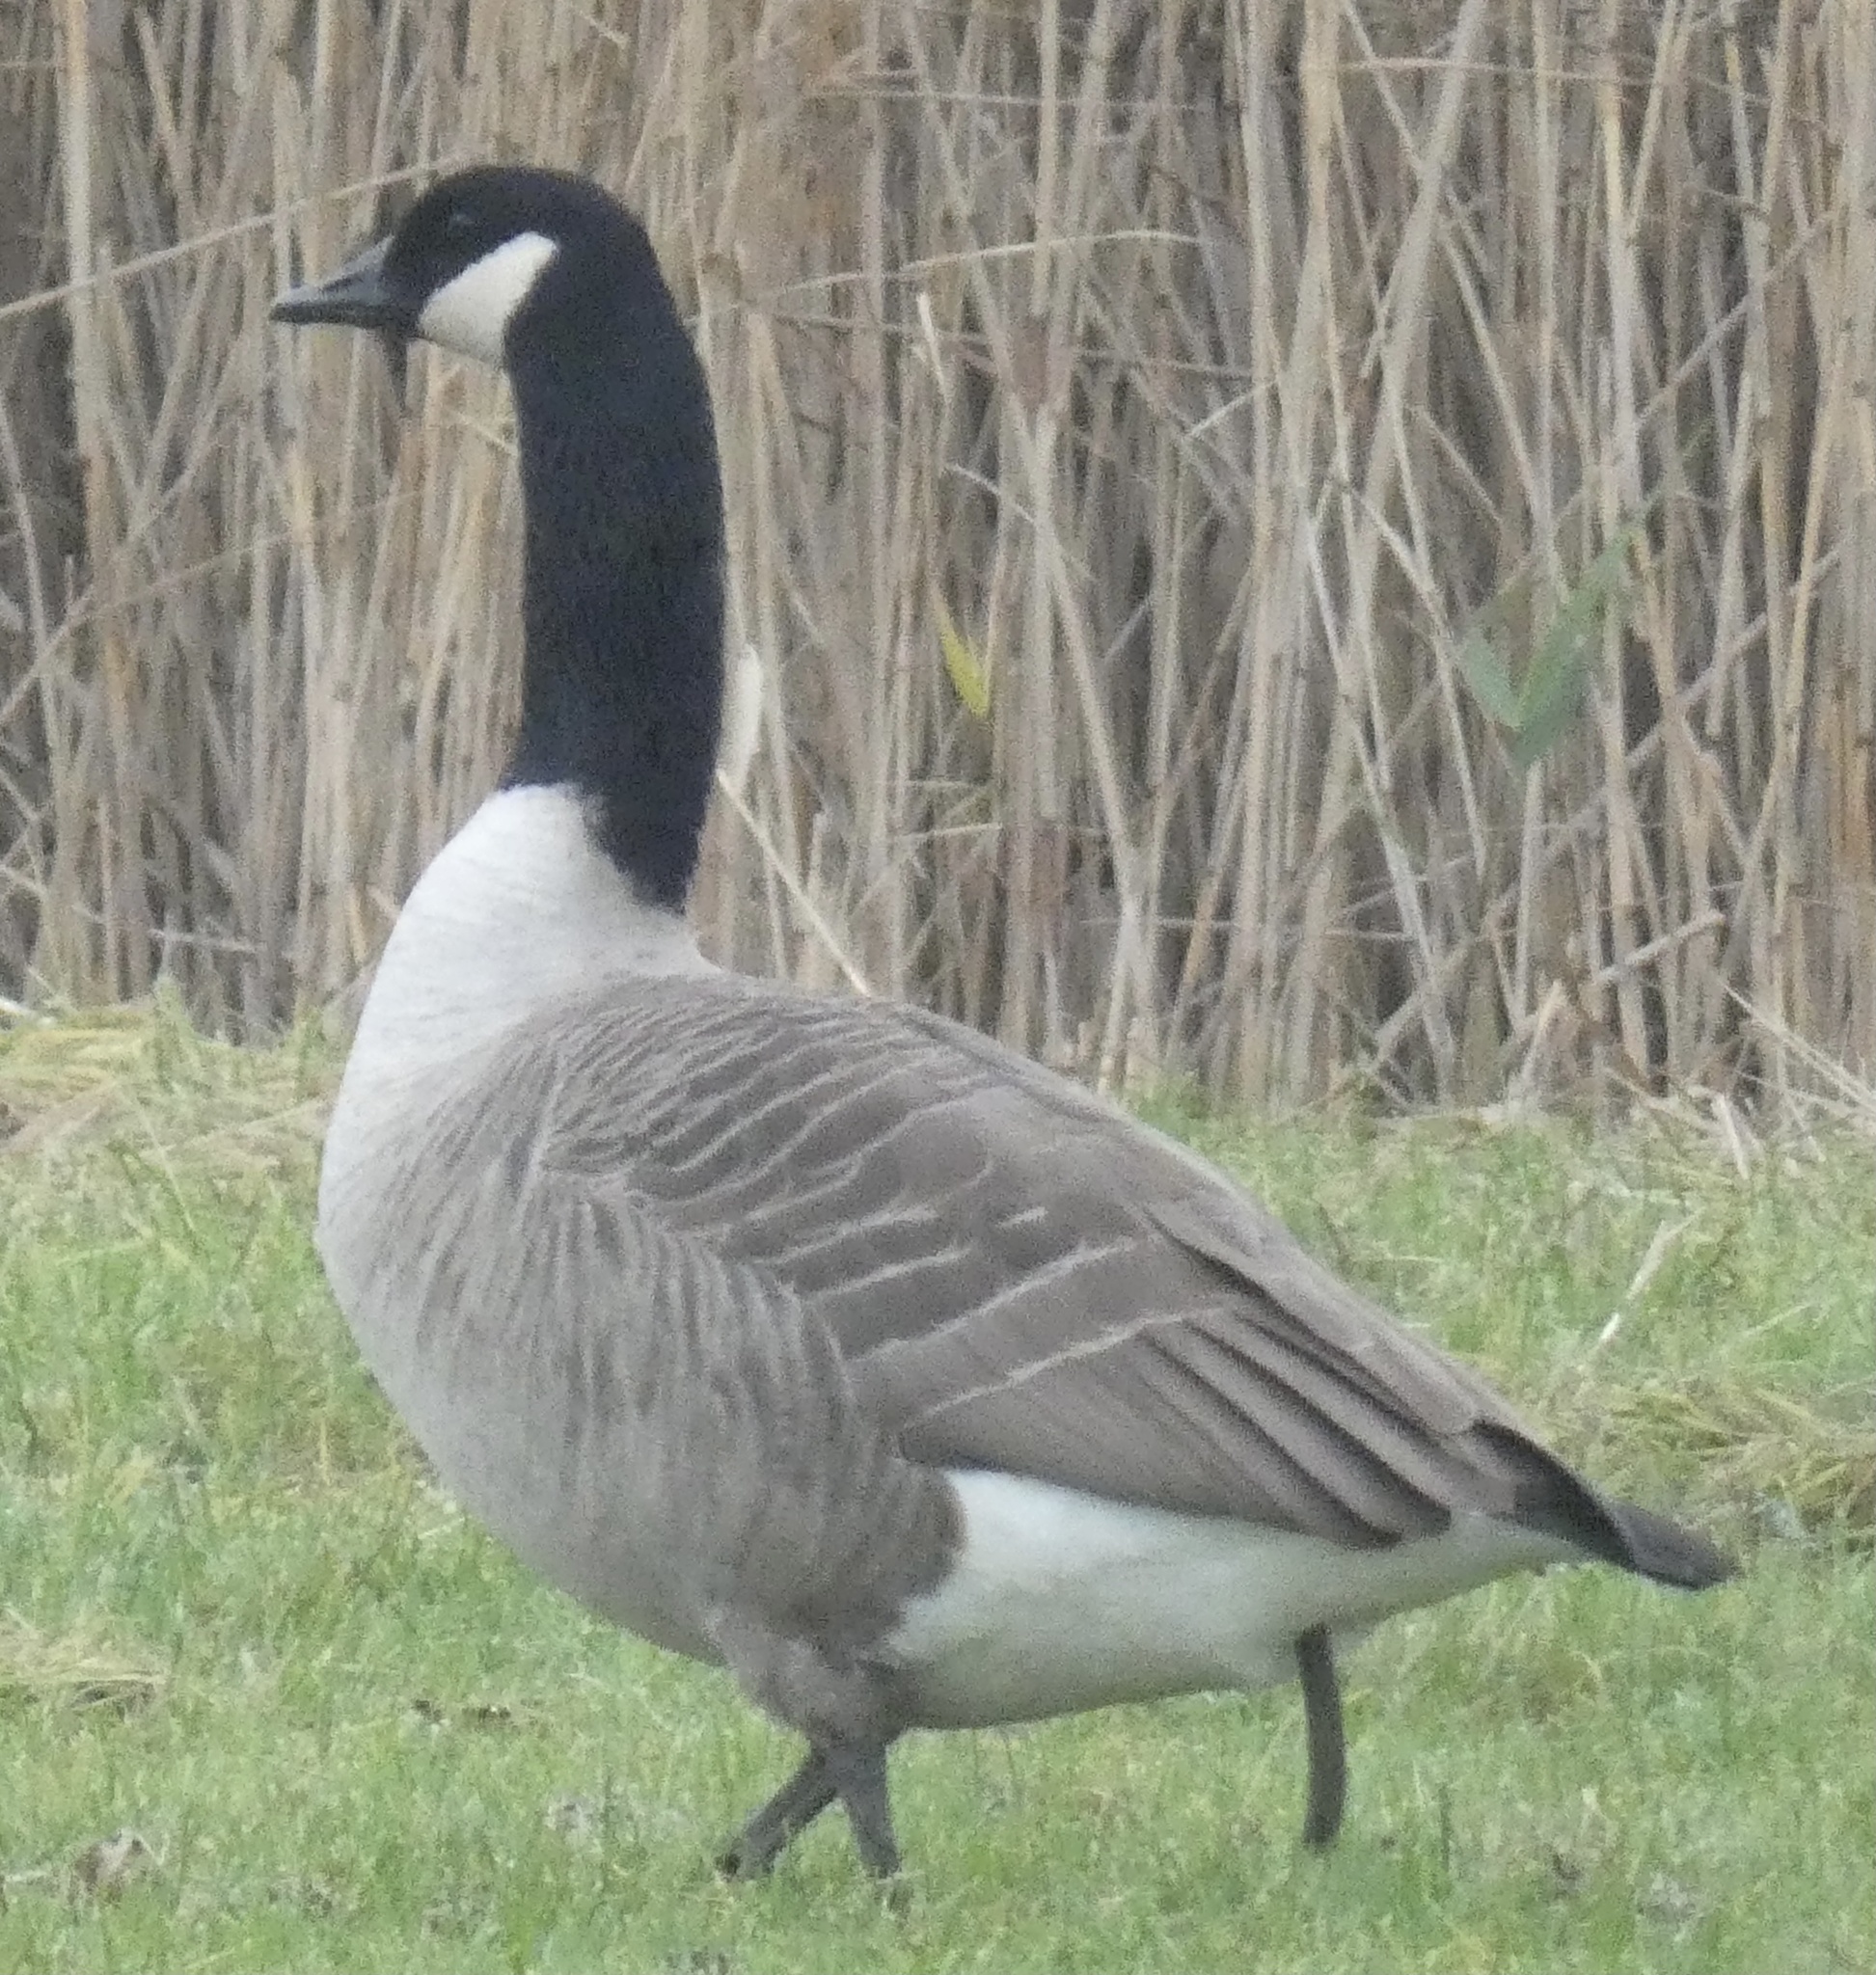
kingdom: Animalia
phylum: Chordata
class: Aves
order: Anseriformes
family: Anatidae
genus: Branta
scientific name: Branta canadensis
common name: Canada goose
